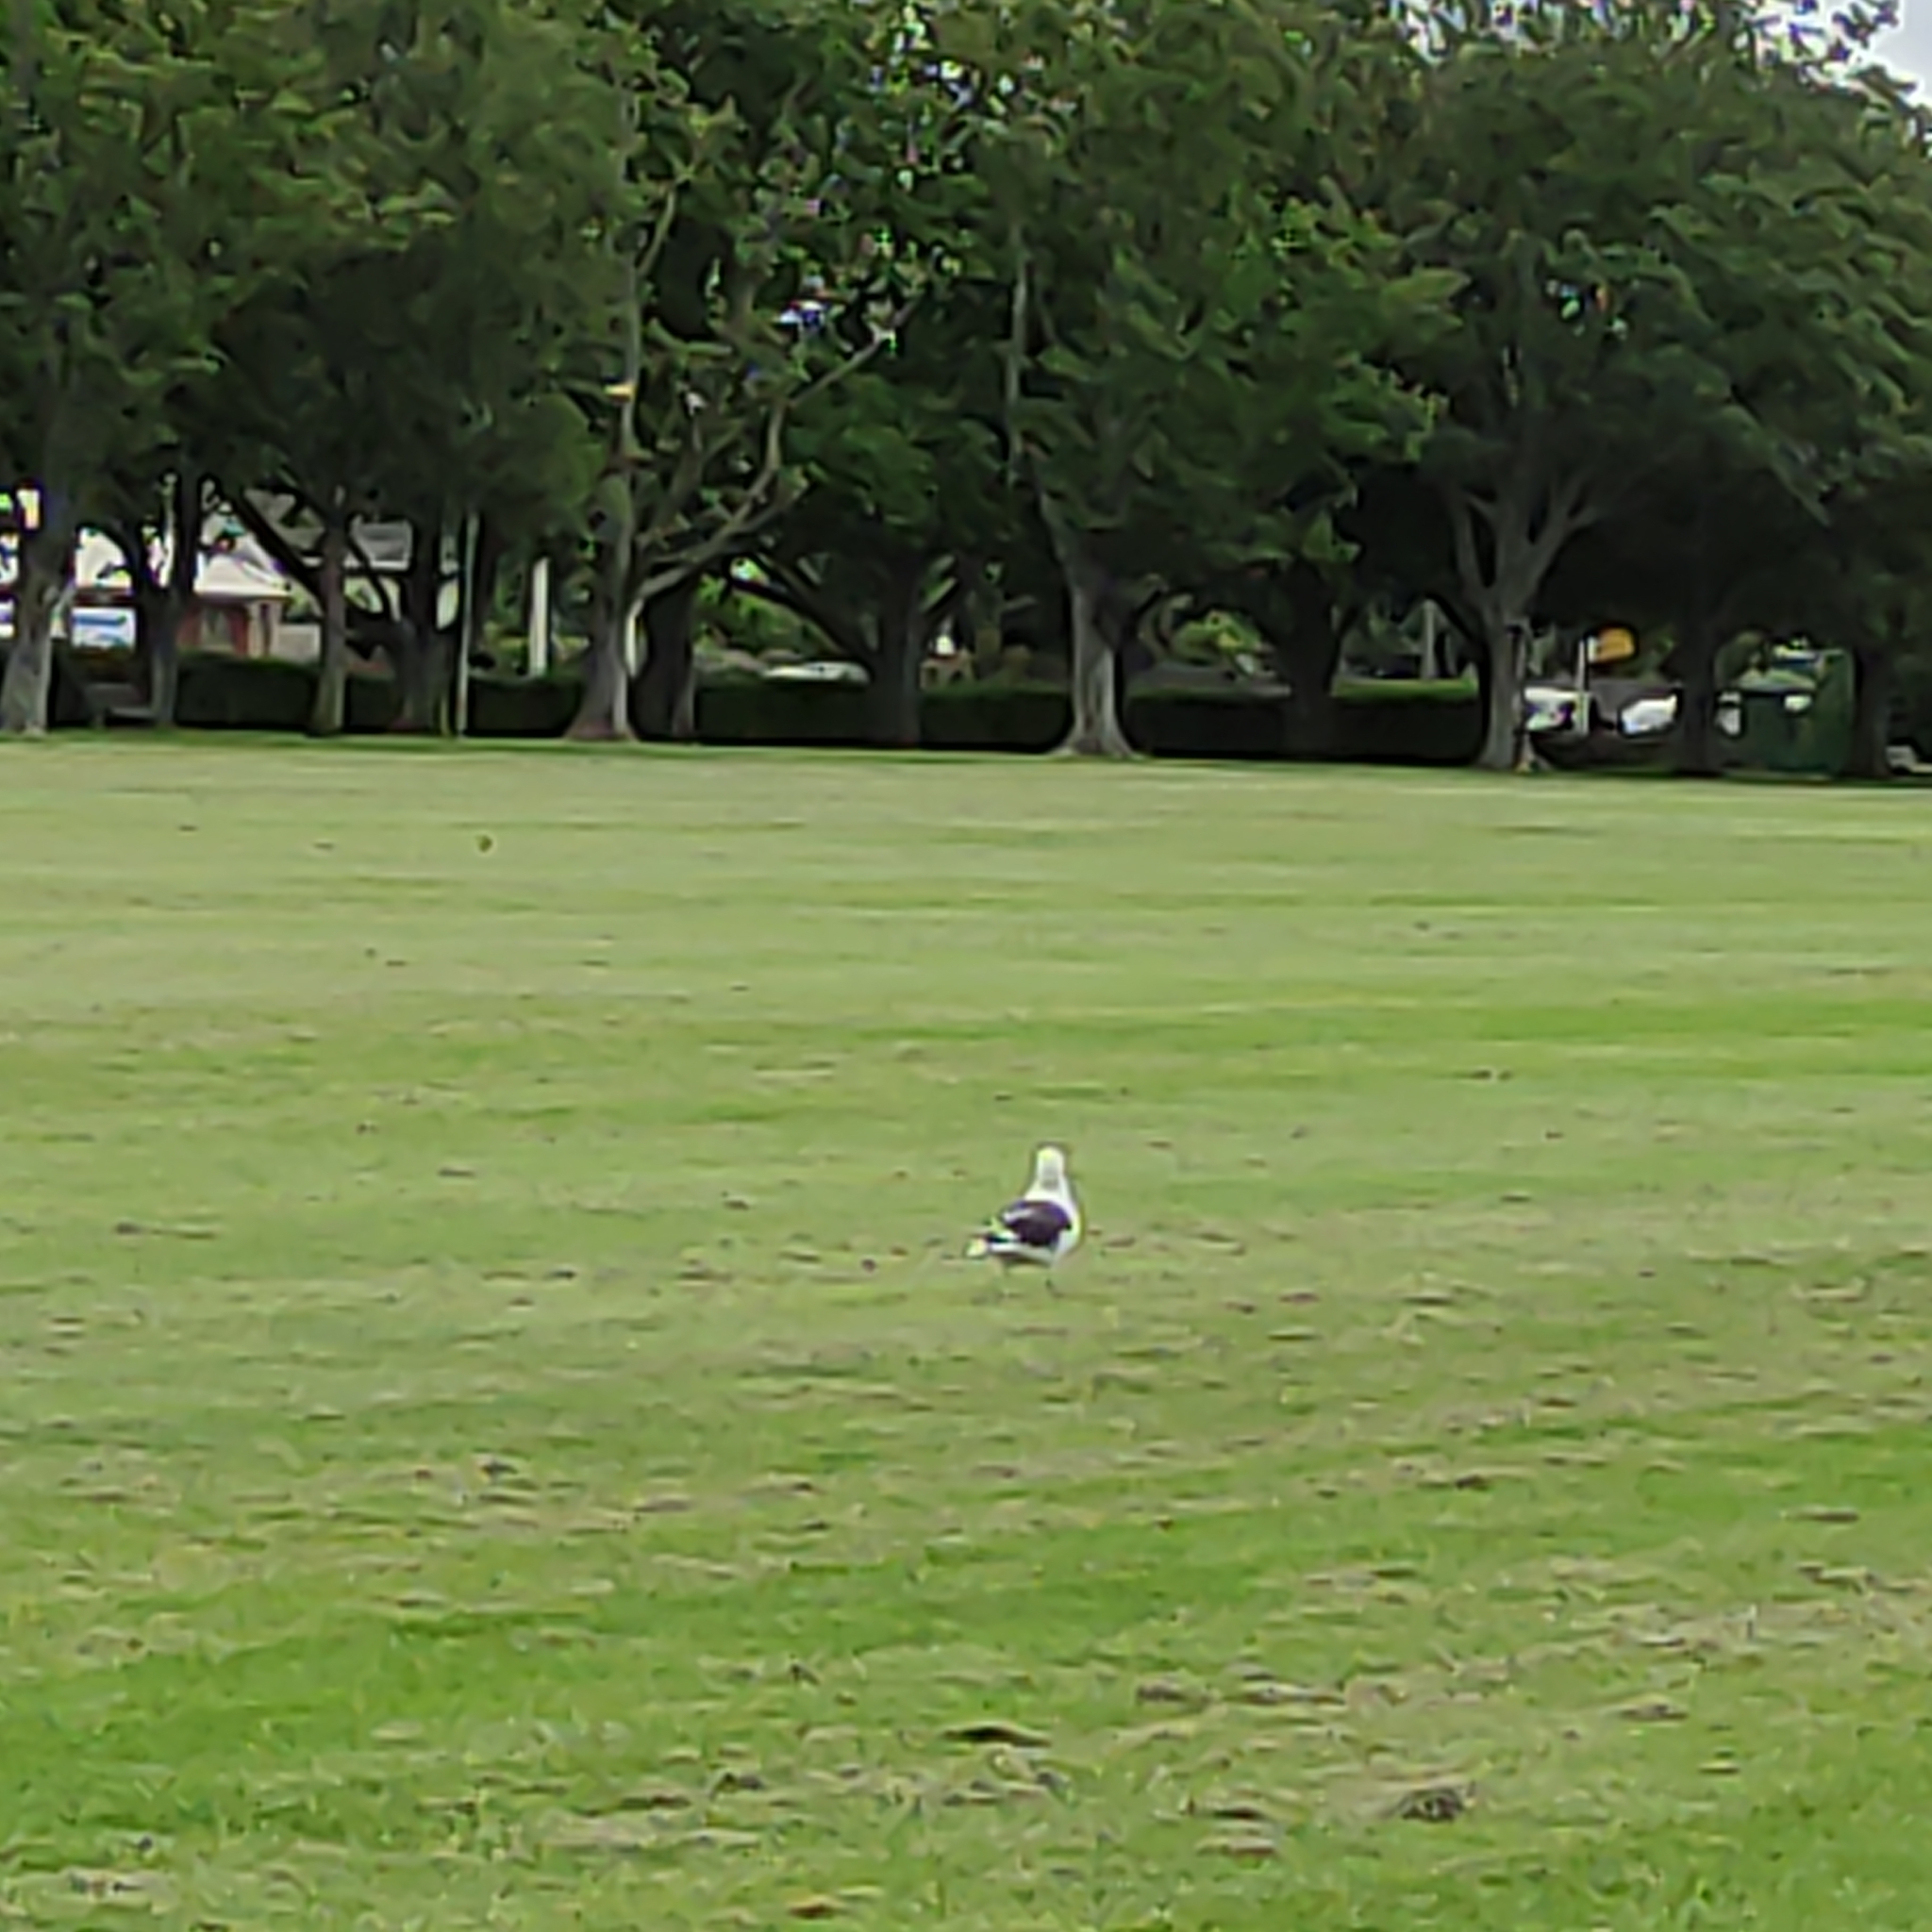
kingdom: Animalia
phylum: Chordata
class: Aves
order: Charadriiformes
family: Laridae
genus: Larus
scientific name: Larus dominicanus
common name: Kelp gull
